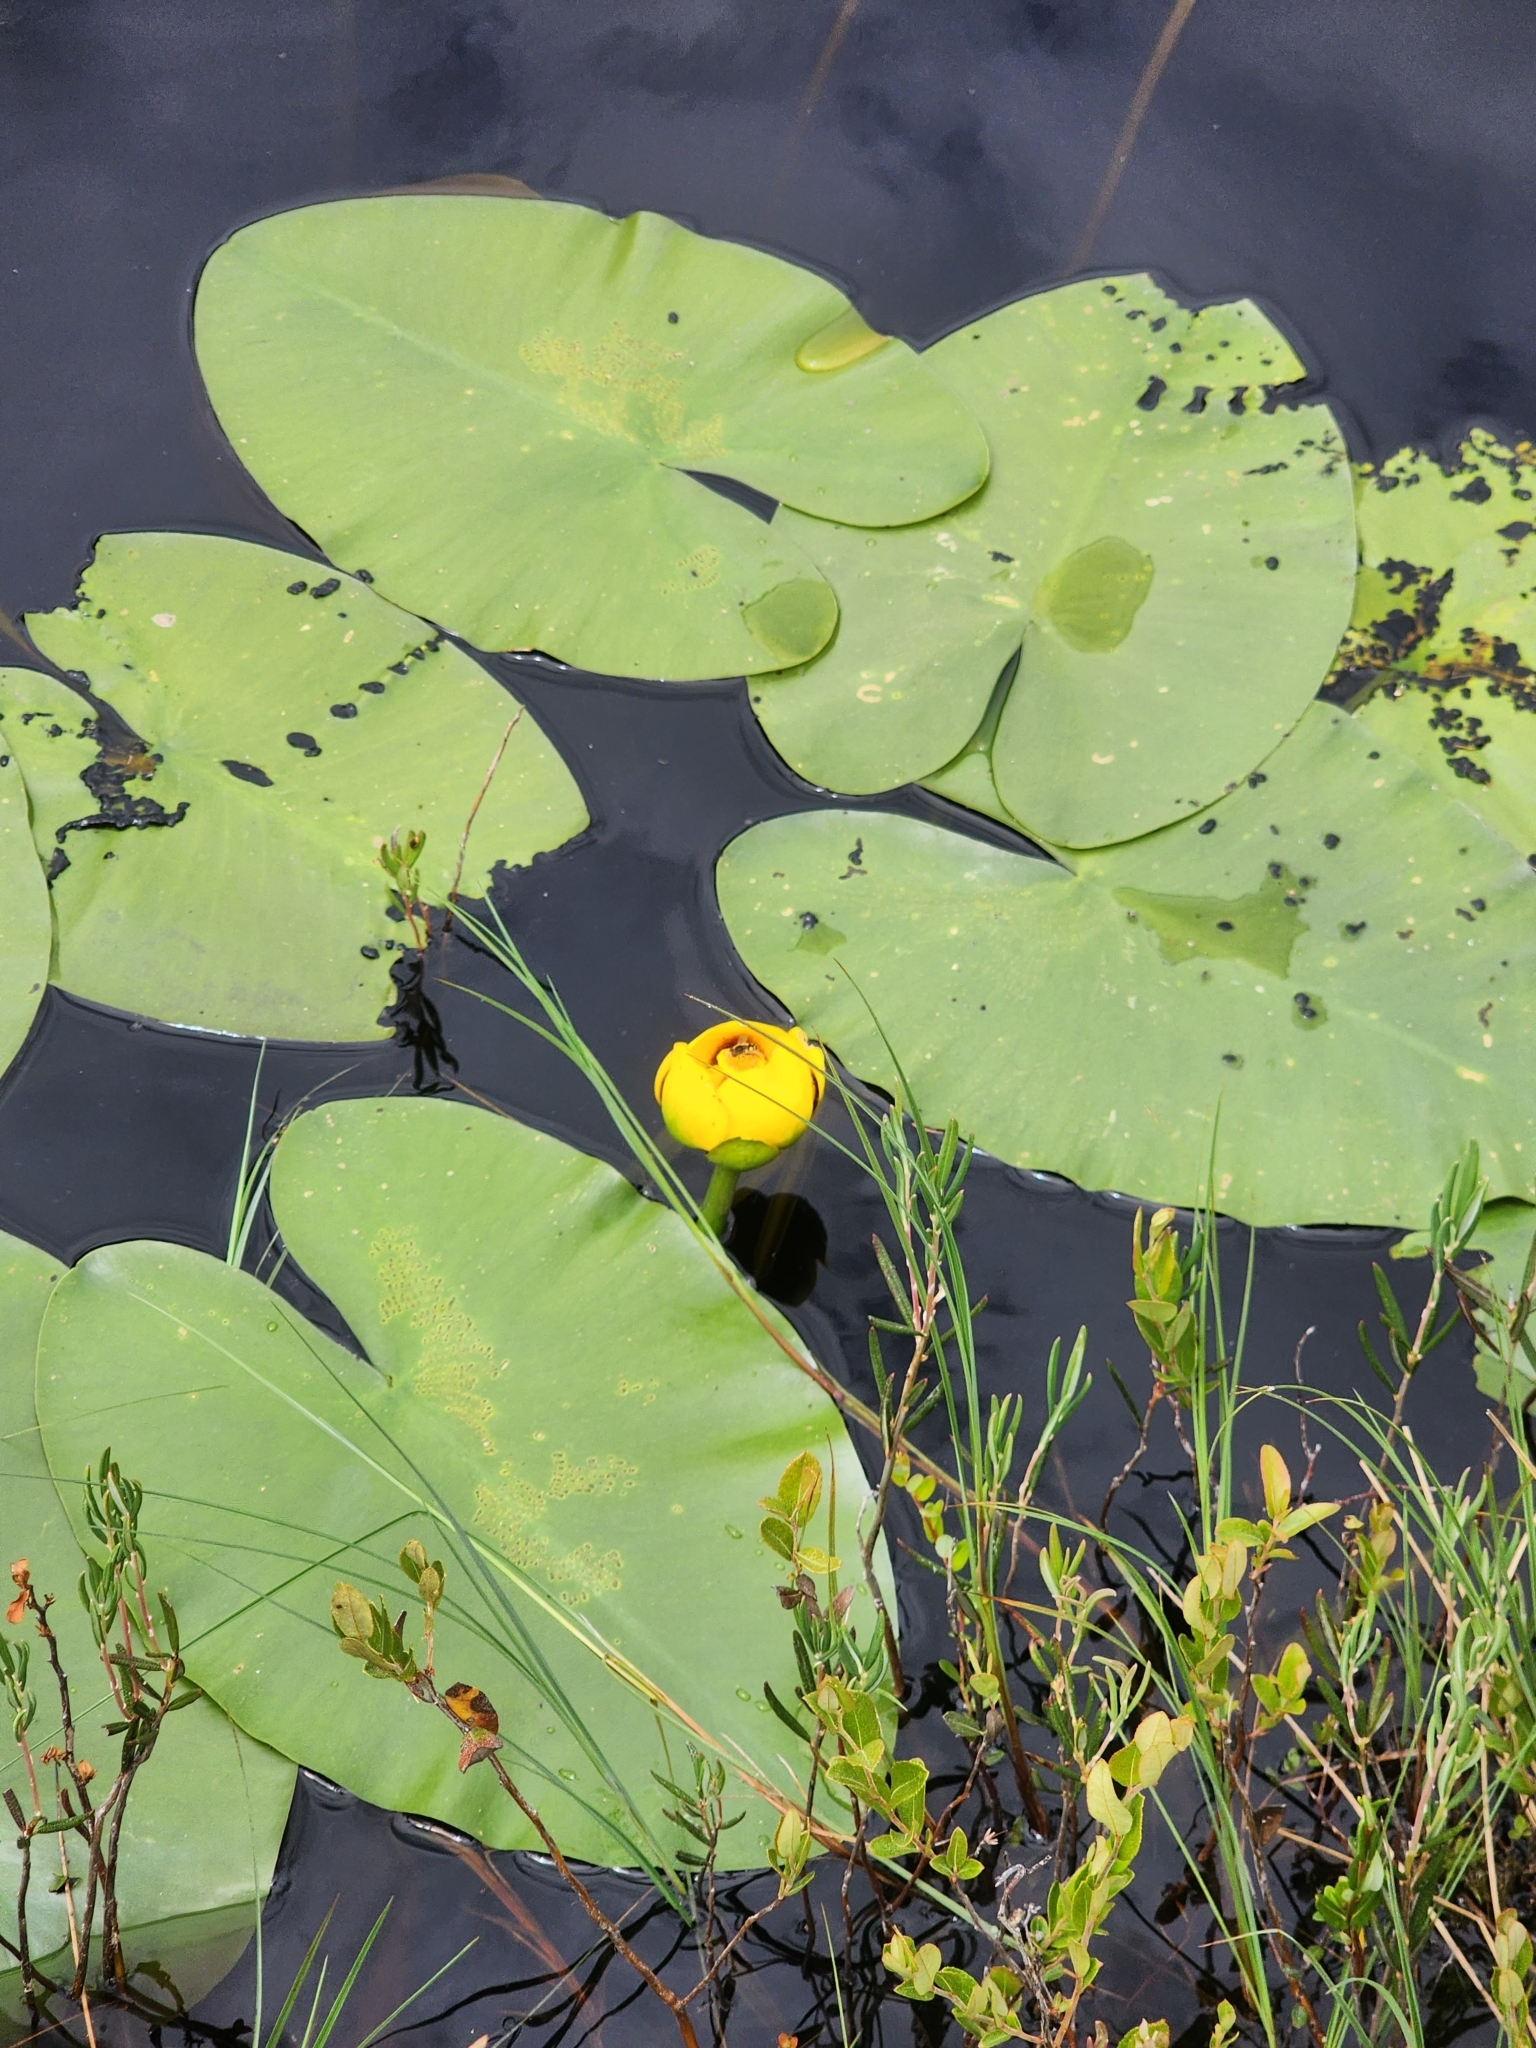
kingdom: Plantae
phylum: Tracheophyta
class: Magnoliopsida
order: Nymphaeales
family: Nymphaeaceae
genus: Nuphar
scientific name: Nuphar variegata
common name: Beaver-root
